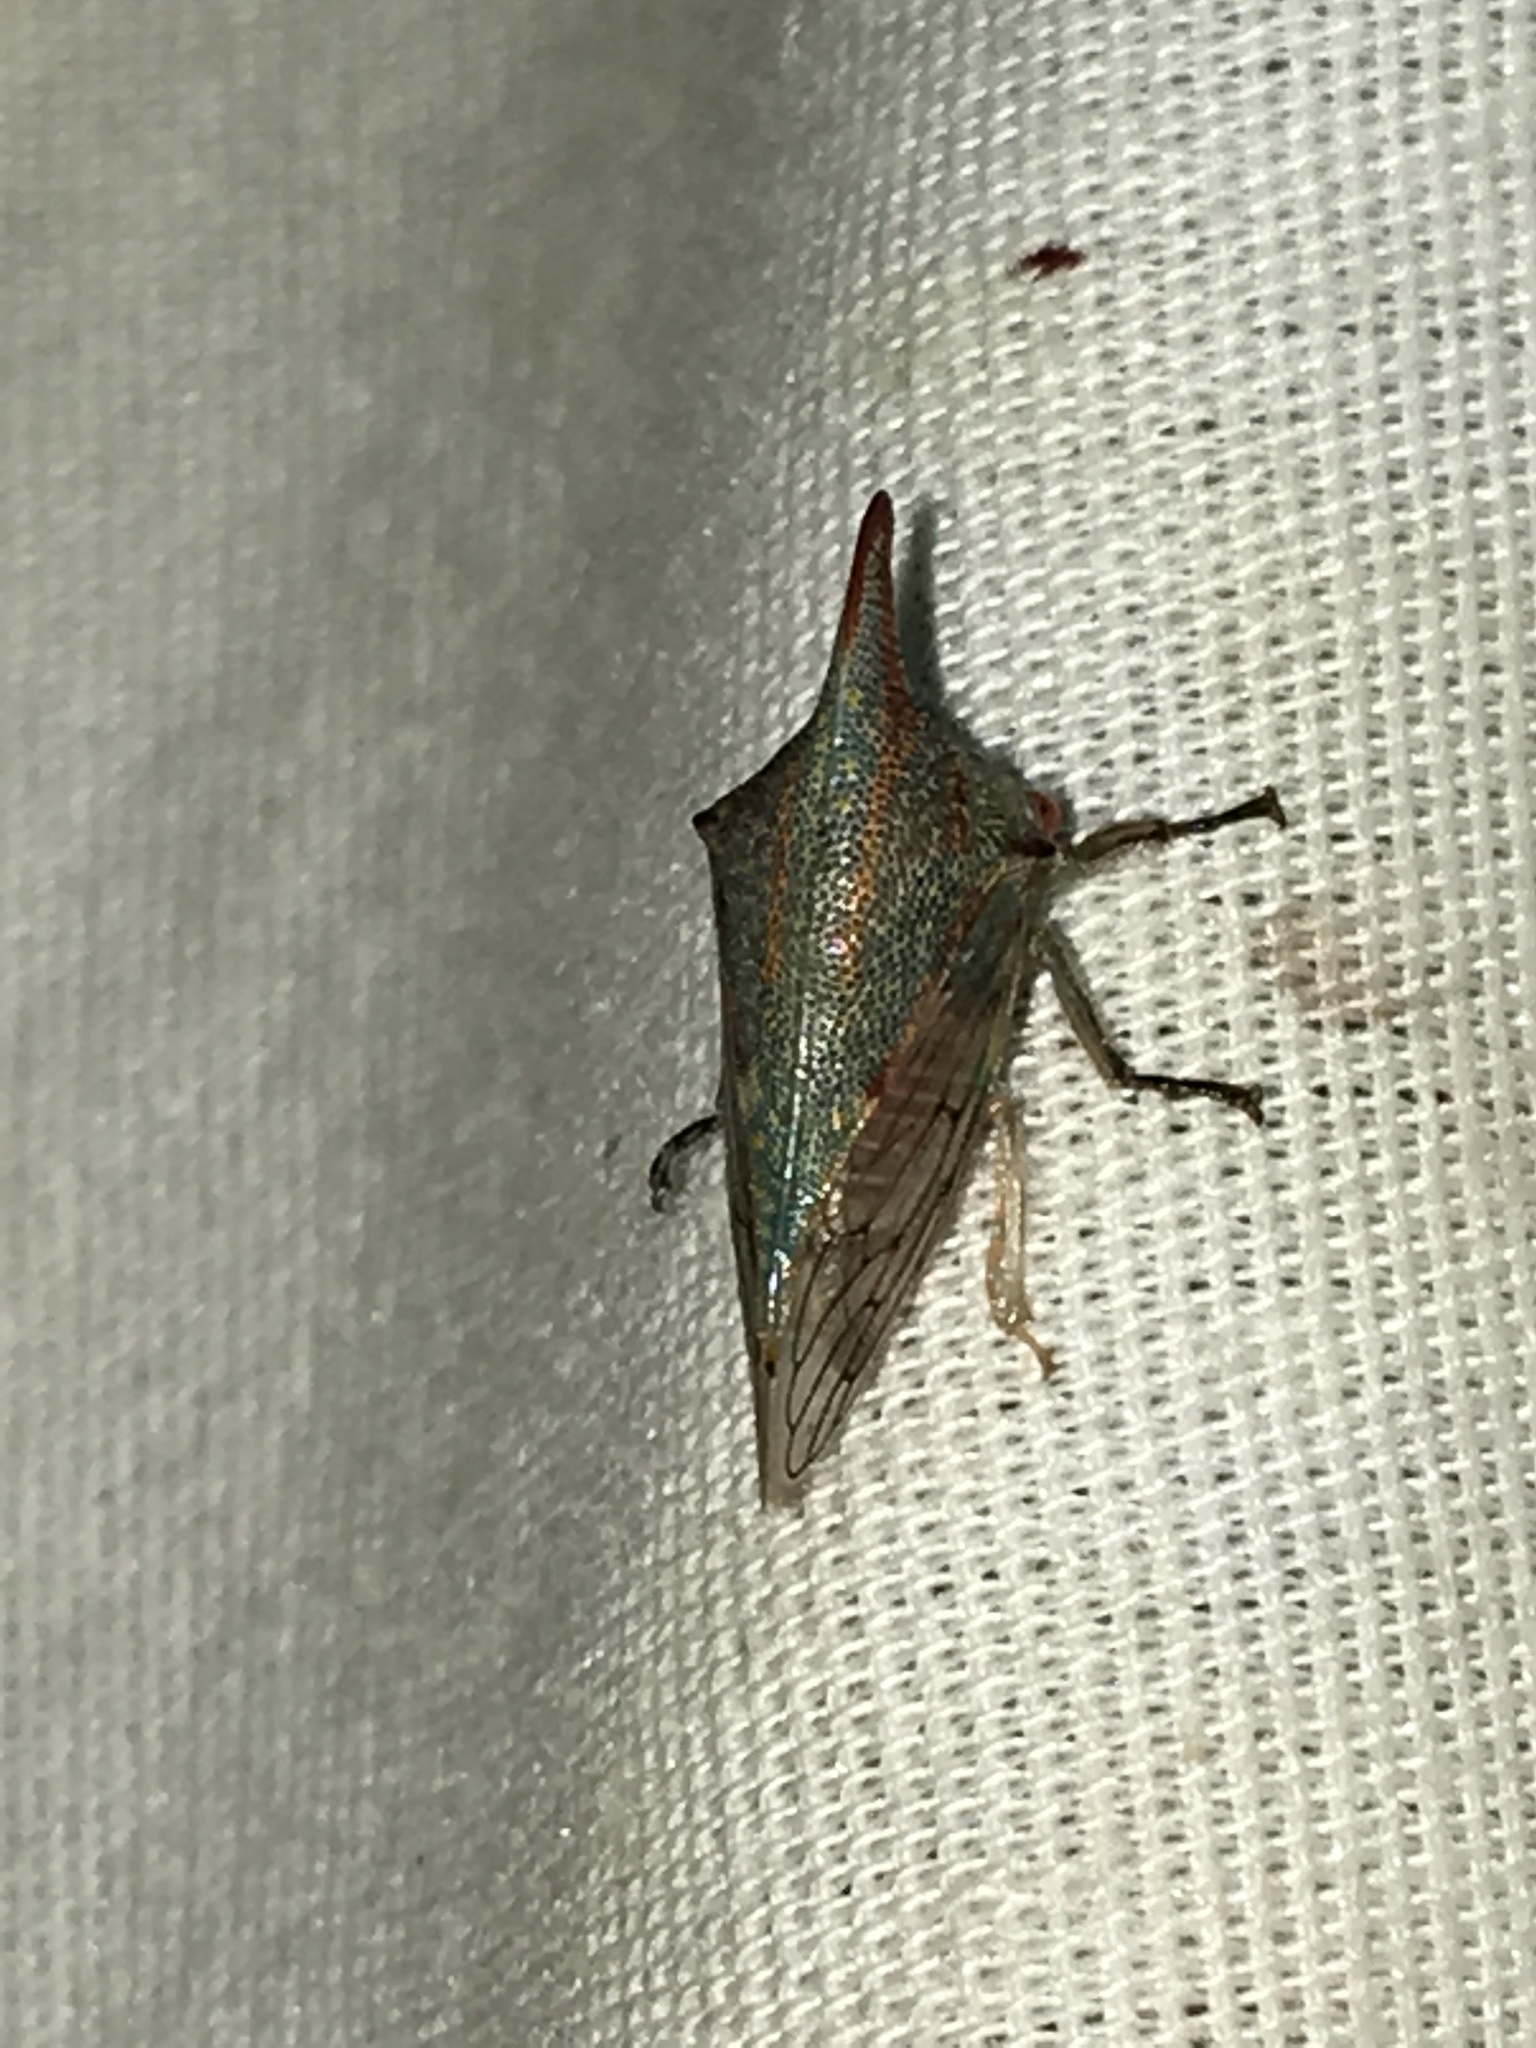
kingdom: Animalia
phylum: Arthropoda
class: Insecta
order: Hemiptera
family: Membracidae
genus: Platycotis
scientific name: Platycotis vittatus
